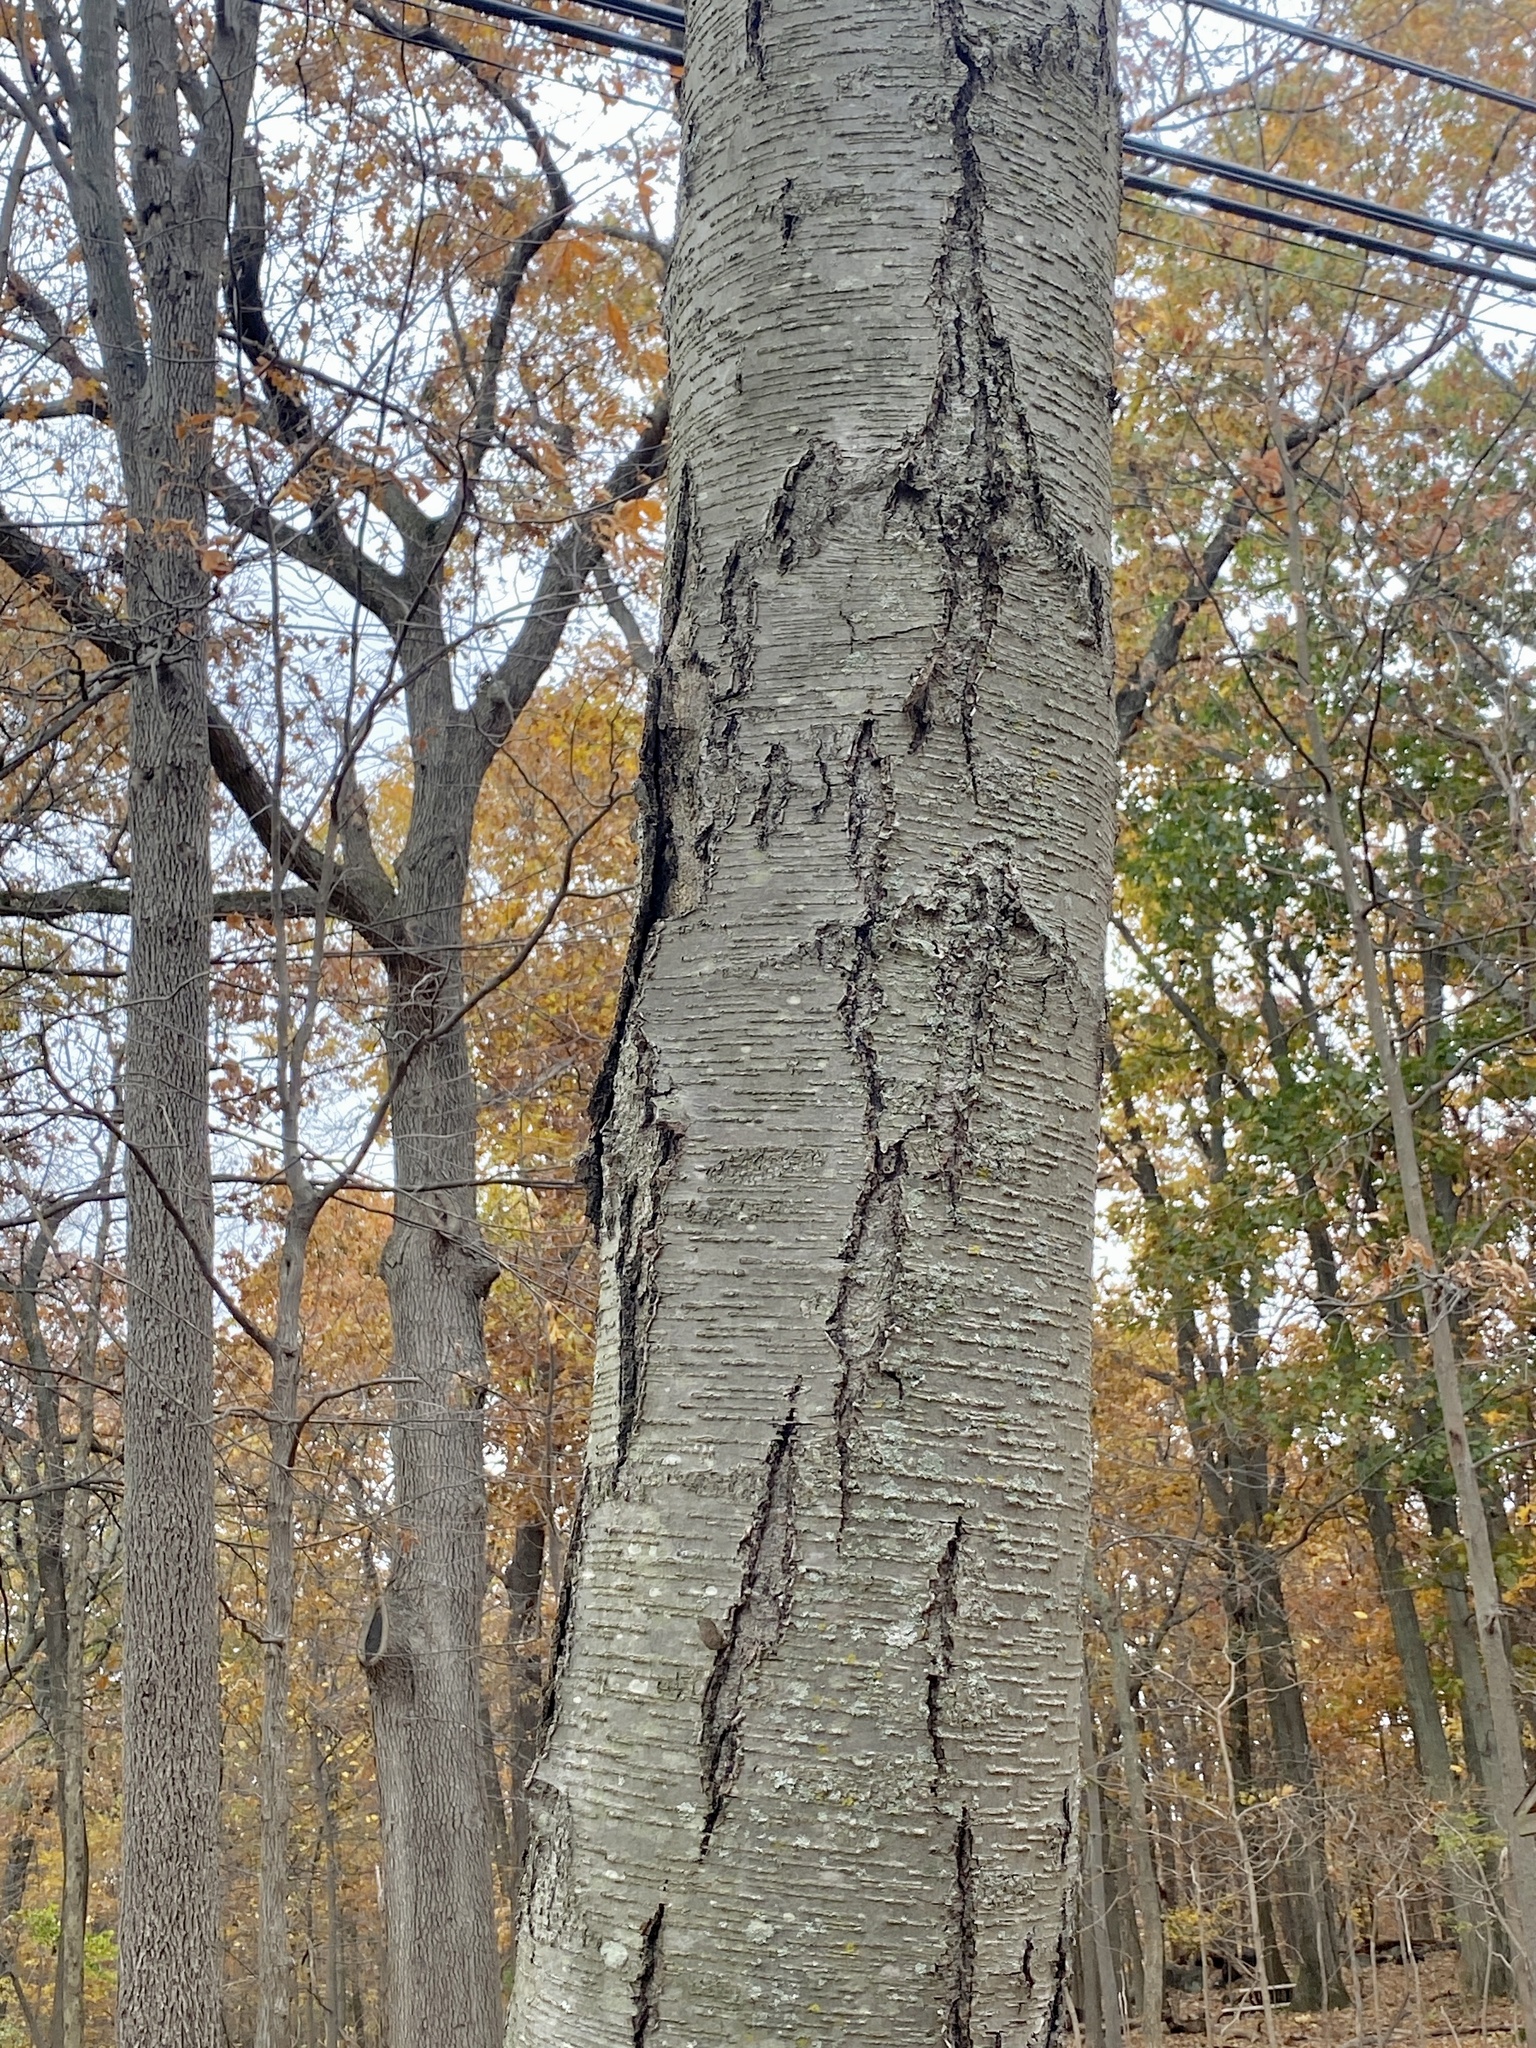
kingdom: Plantae
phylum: Tracheophyta
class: Magnoliopsida
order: Fagales
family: Betulaceae
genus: Betula
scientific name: Betula lenta
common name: Black birch
